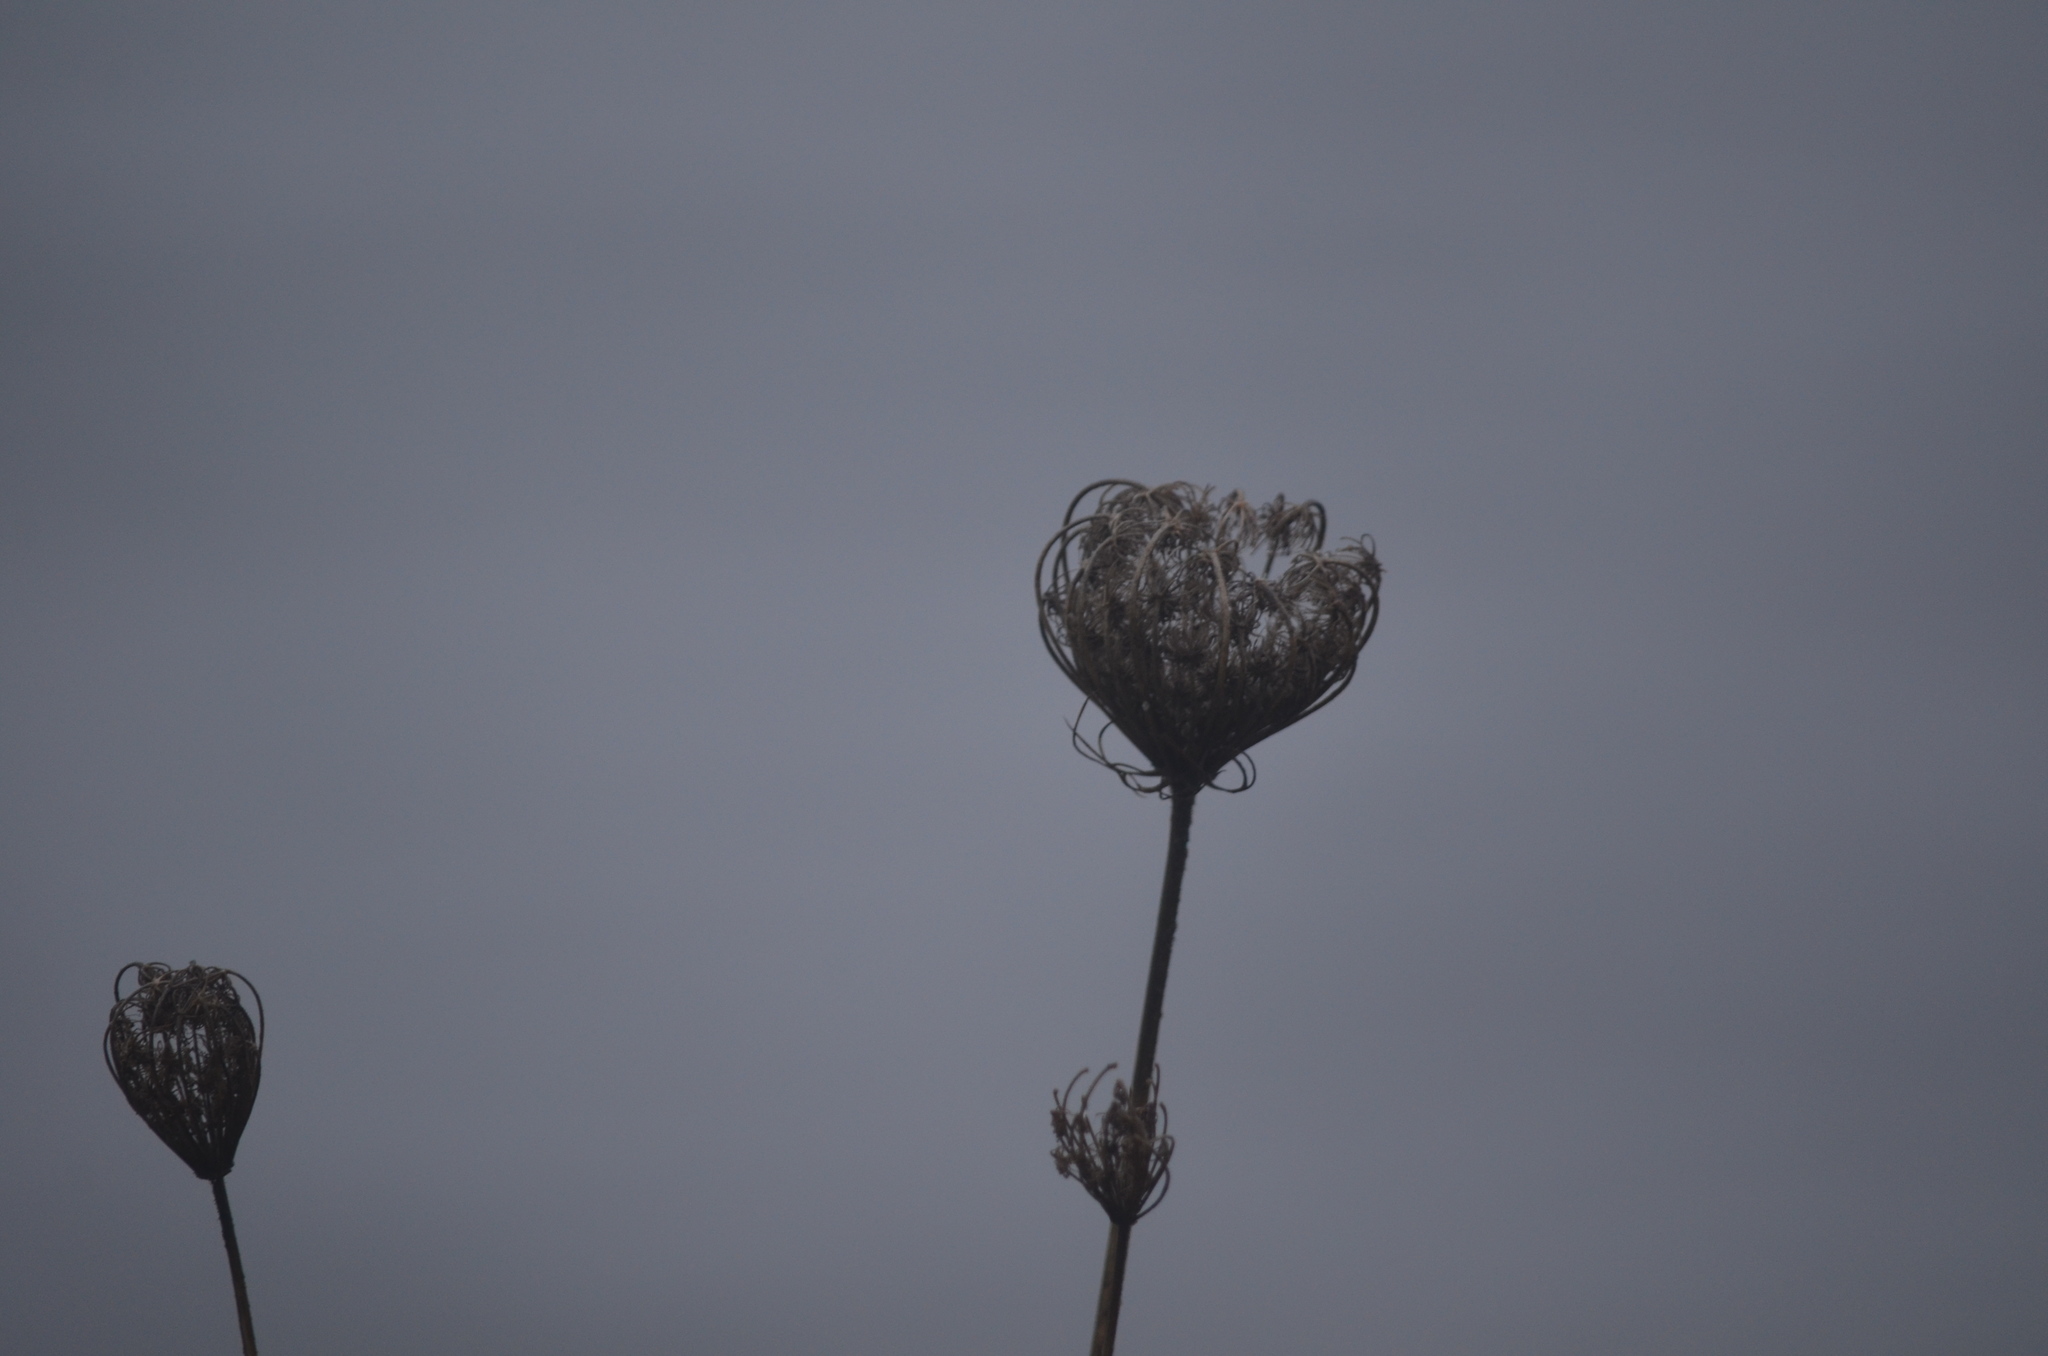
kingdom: Plantae
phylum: Tracheophyta
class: Magnoliopsida
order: Apiales
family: Apiaceae
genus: Daucus
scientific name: Daucus carota
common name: Wild carrot
